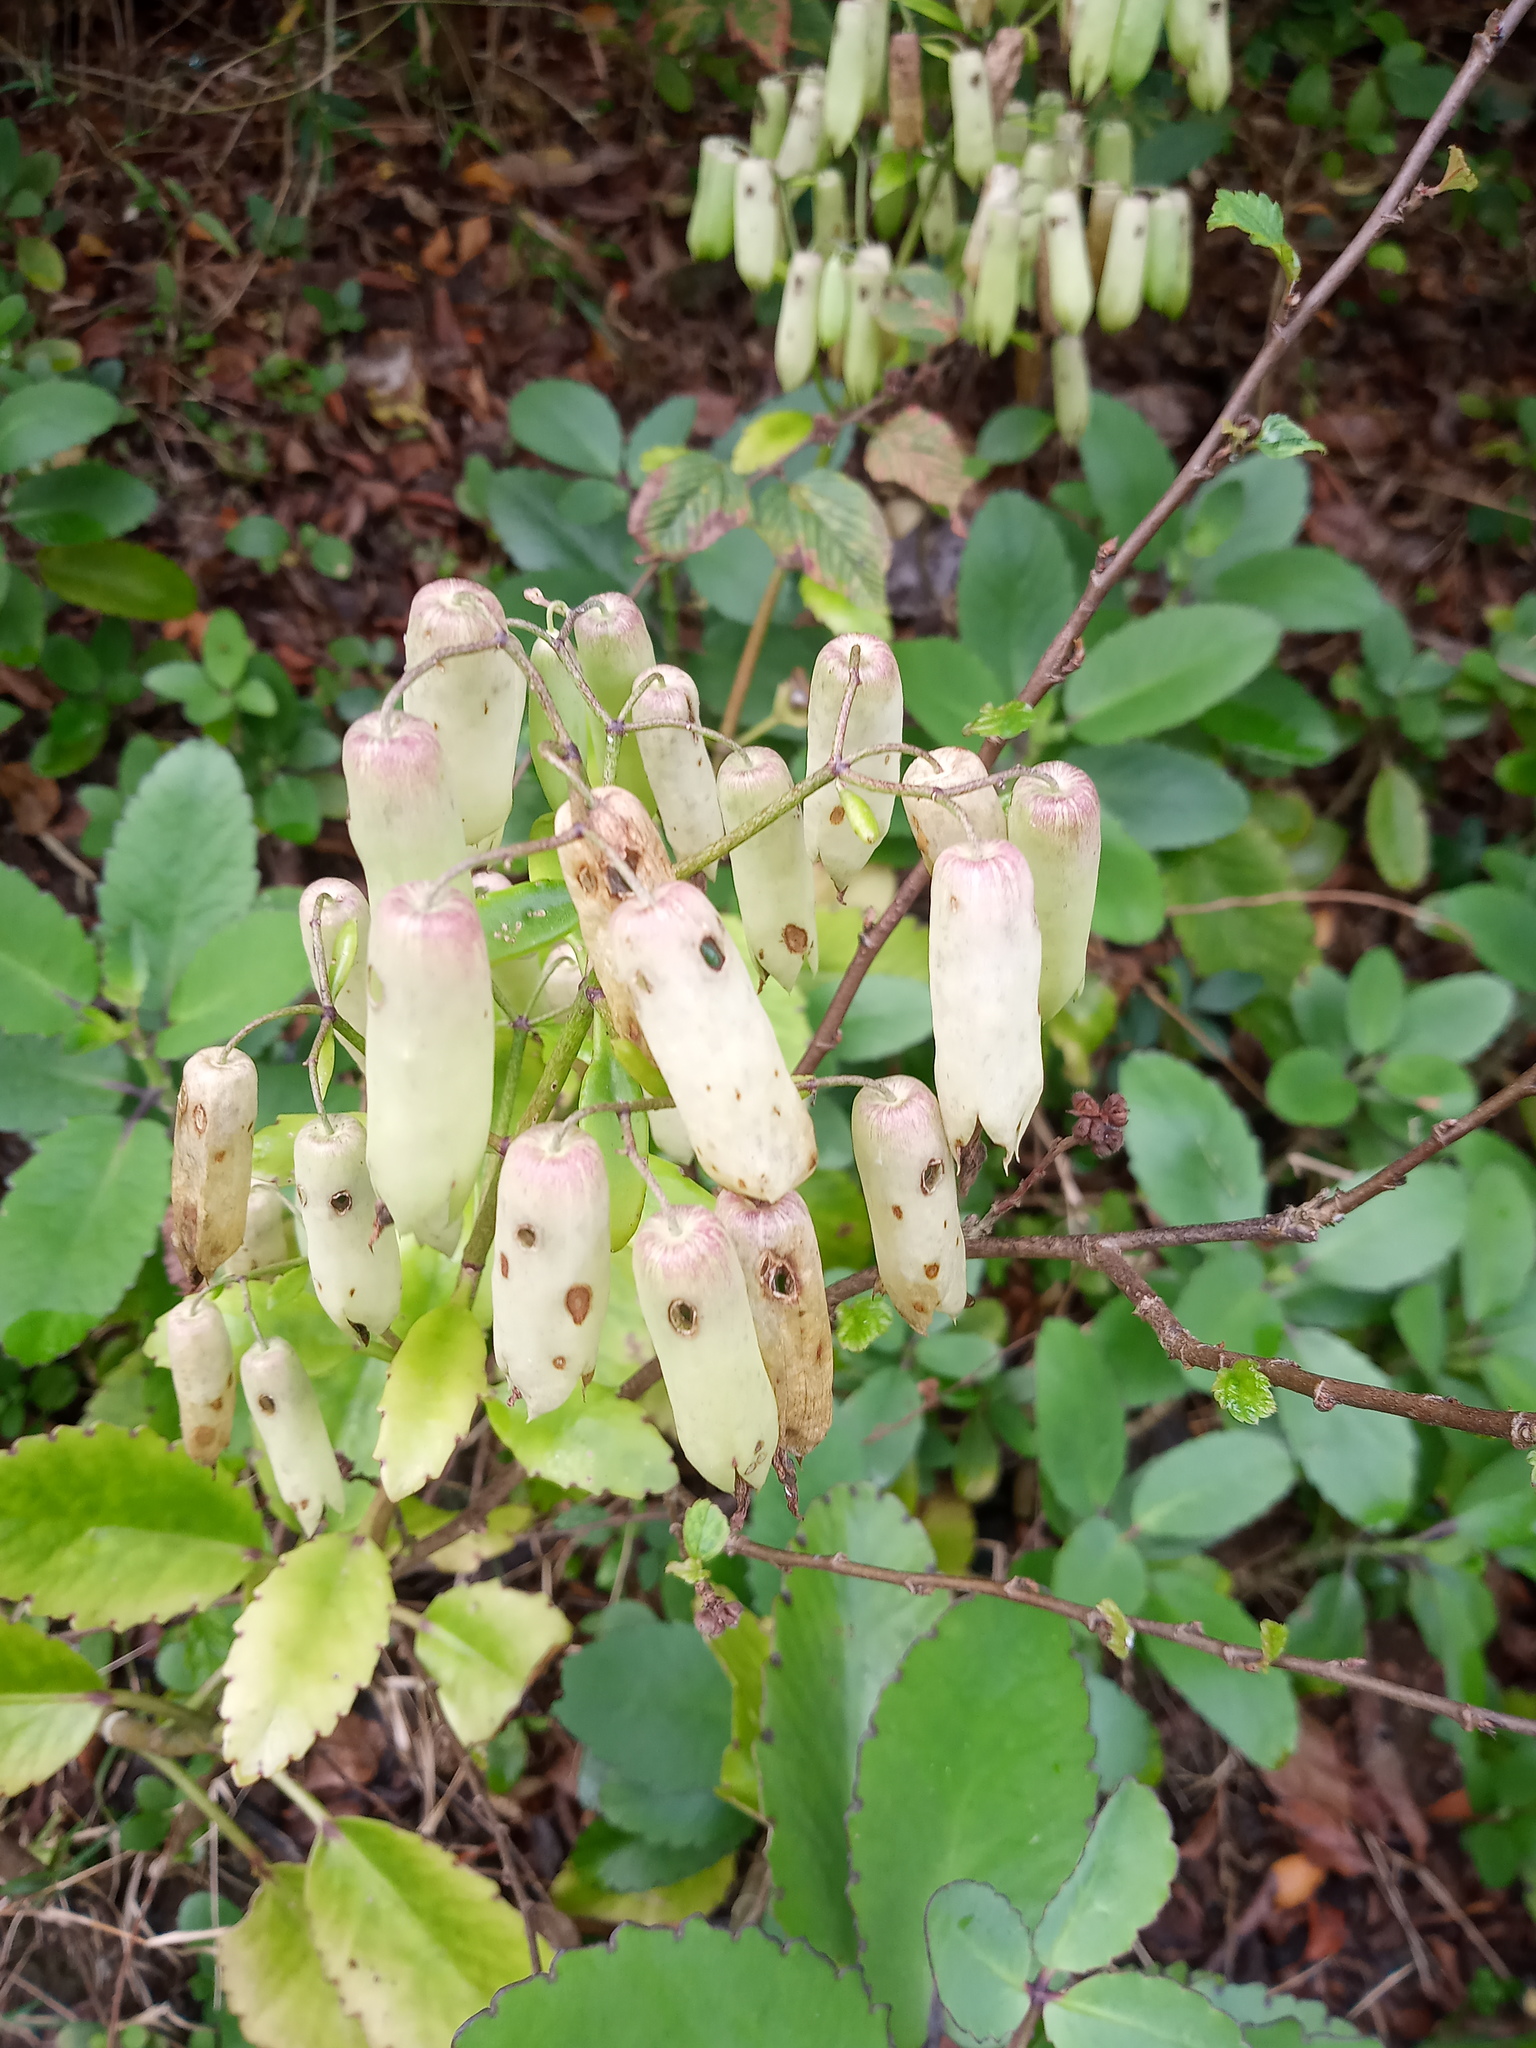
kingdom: Plantae
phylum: Tracheophyta
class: Magnoliopsida
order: Saxifragales
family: Crassulaceae
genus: Kalanchoe
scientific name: Kalanchoe pinnata
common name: Cathedral bells
